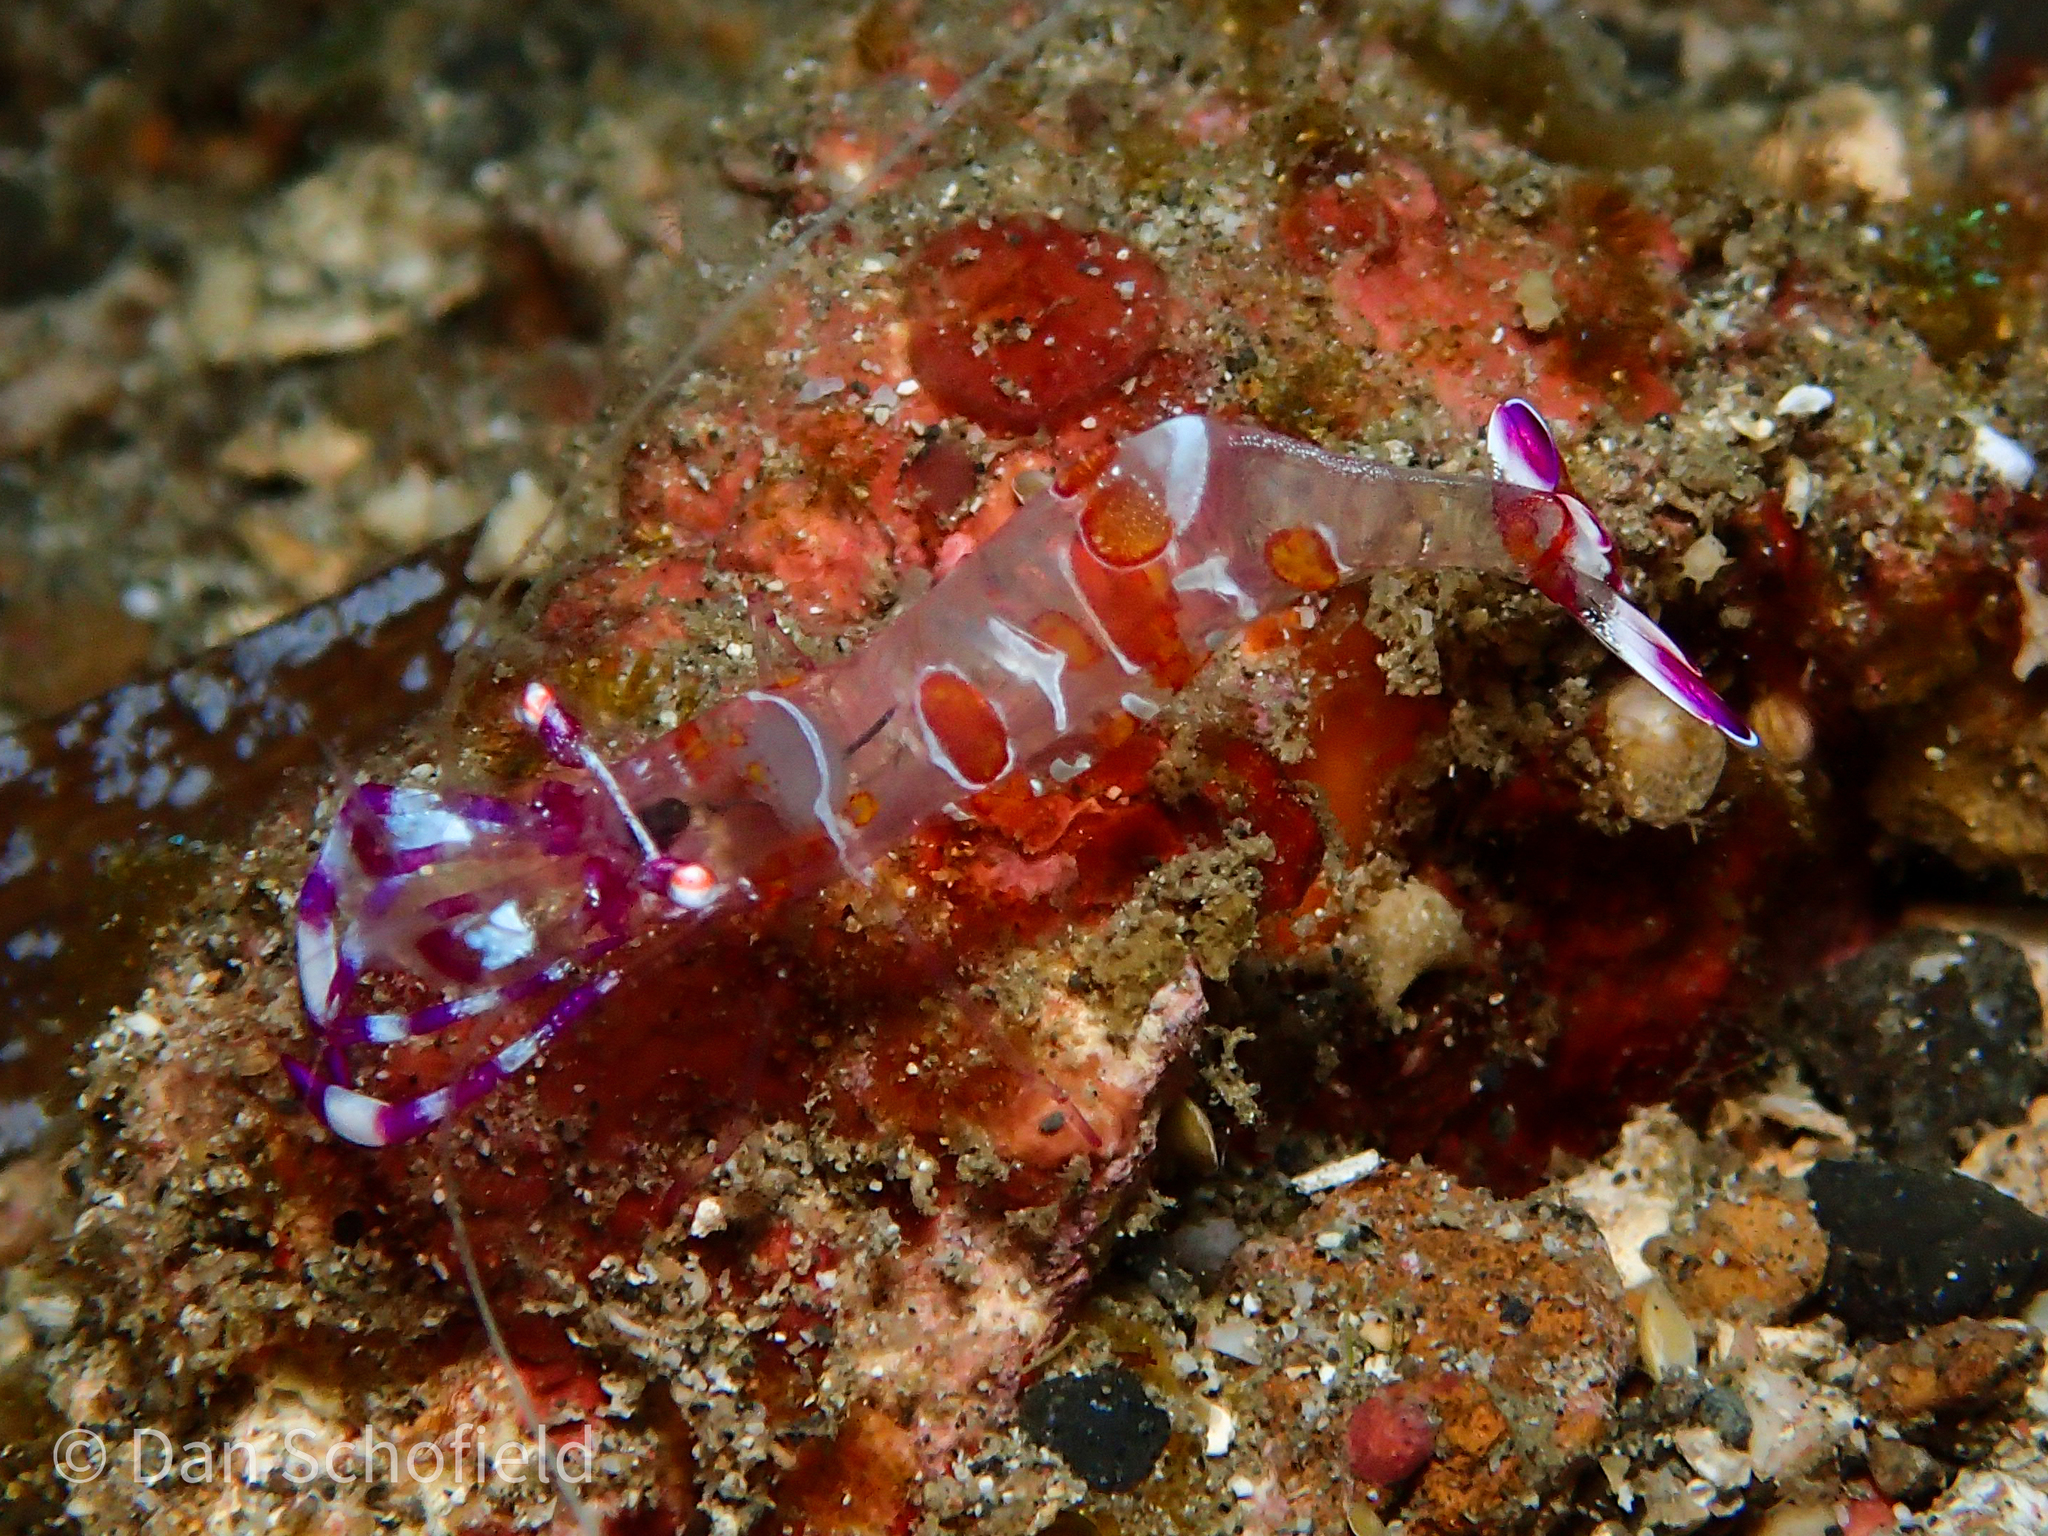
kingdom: Animalia
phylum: Arthropoda
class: Malacostraca
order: Decapoda
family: Palaemonidae
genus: Ancylomenes
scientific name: Ancylomenes luteomaculatus
